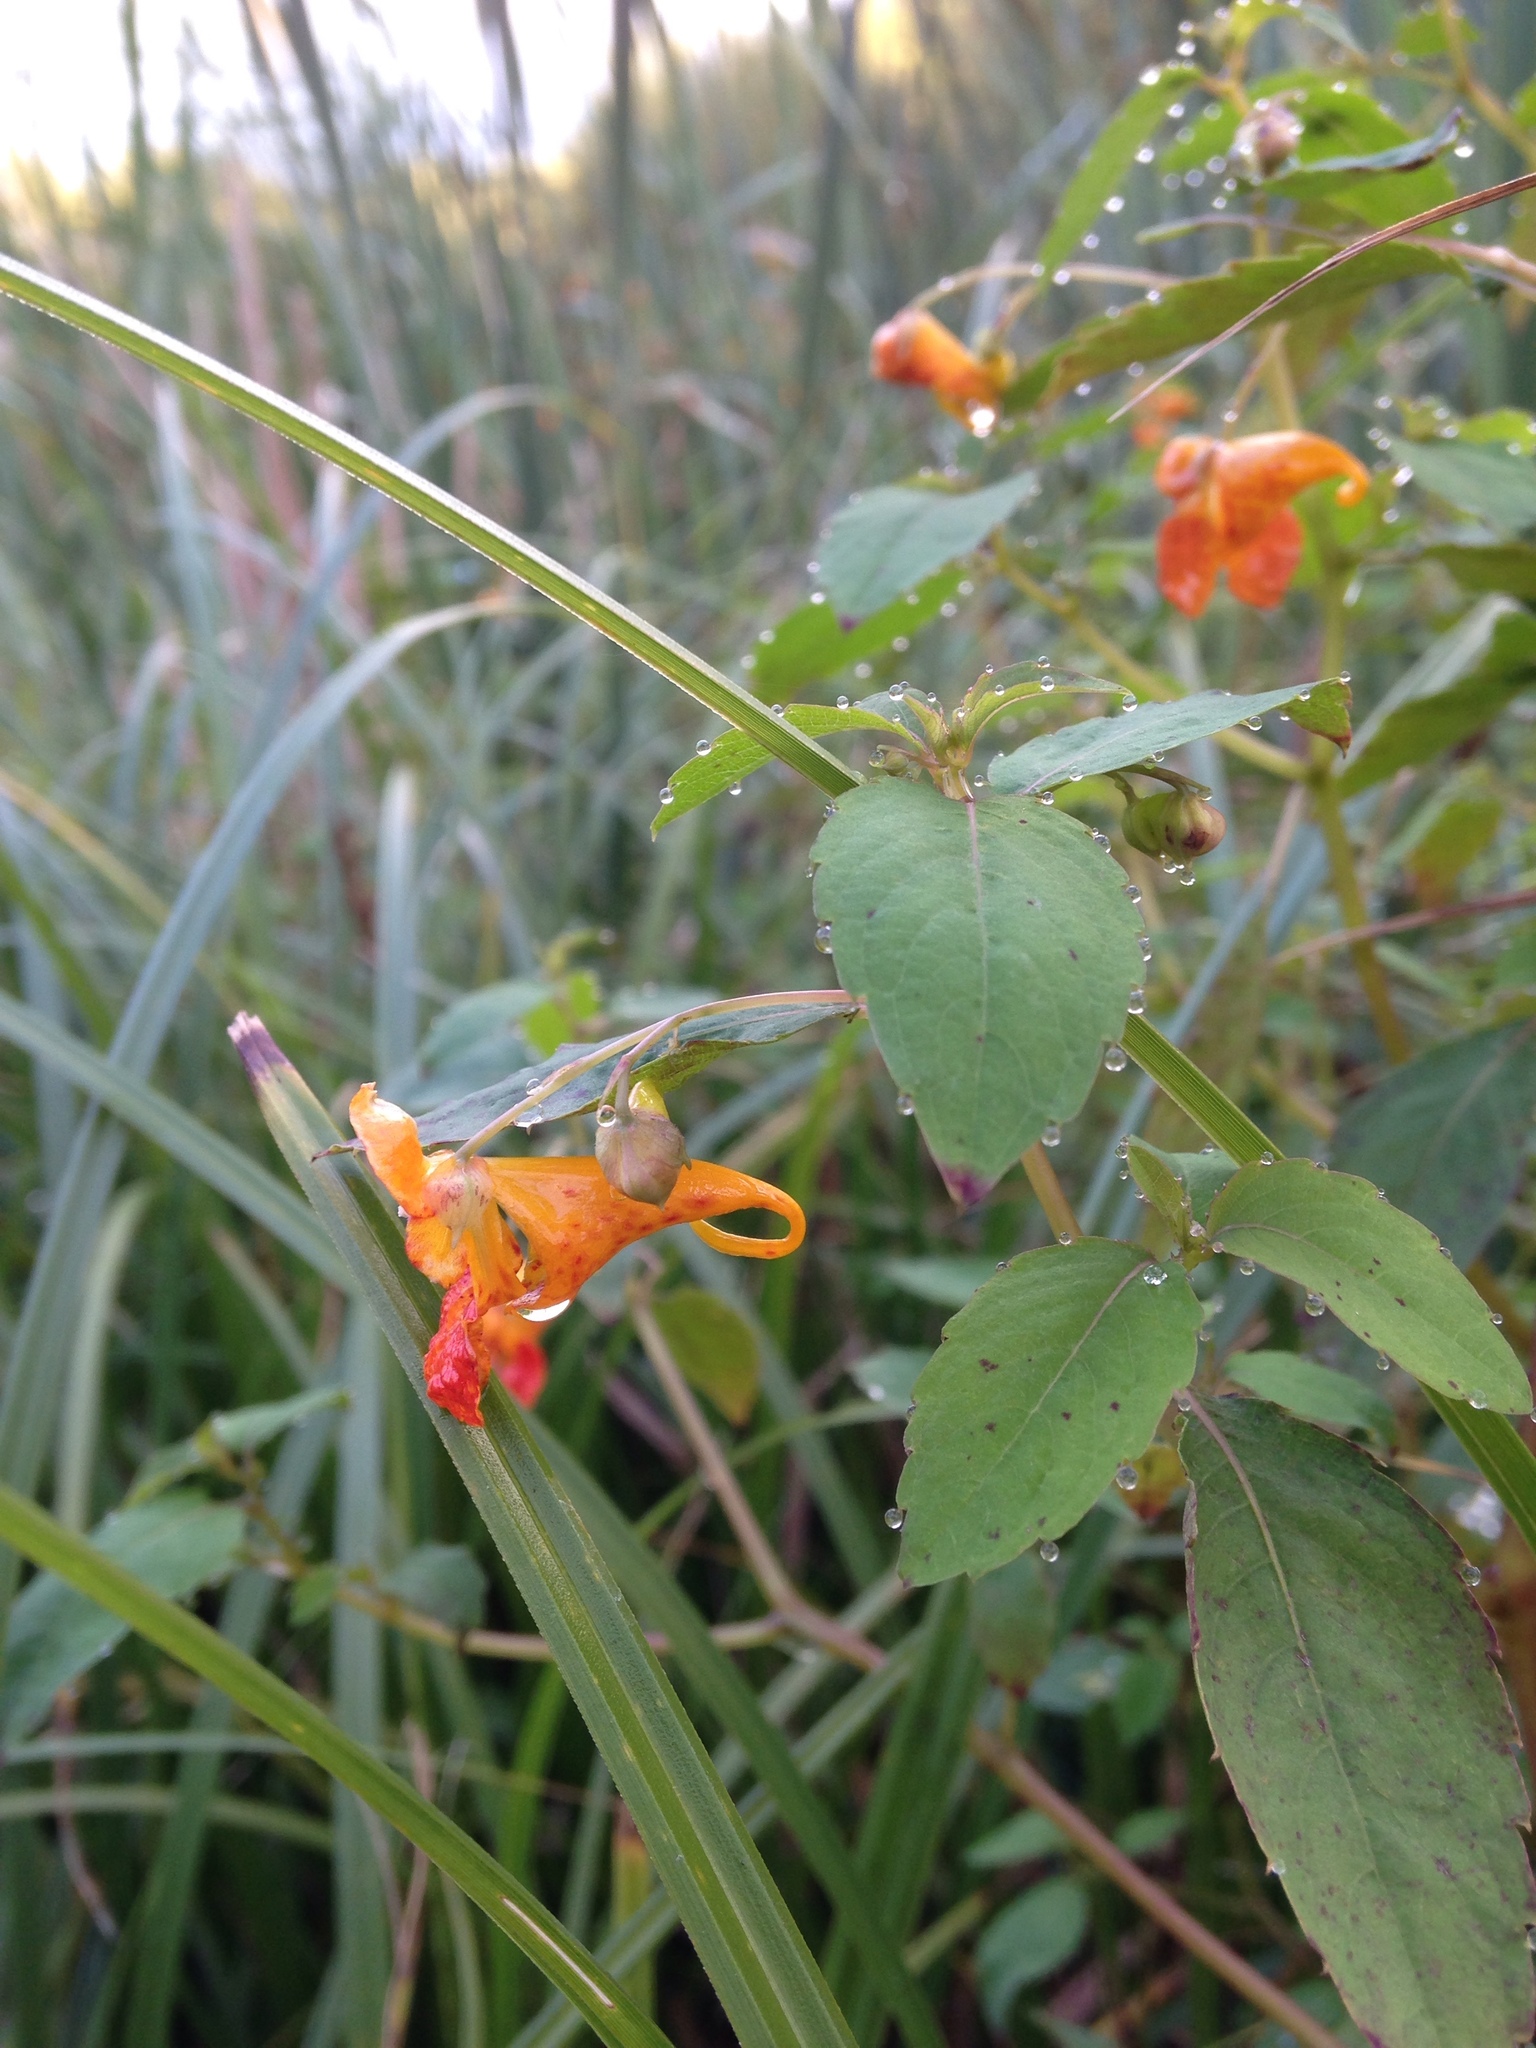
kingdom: Plantae
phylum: Tracheophyta
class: Magnoliopsida
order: Ericales
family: Balsaminaceae
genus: Impatiens
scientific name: Impatiens capensis
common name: Orange balsam
